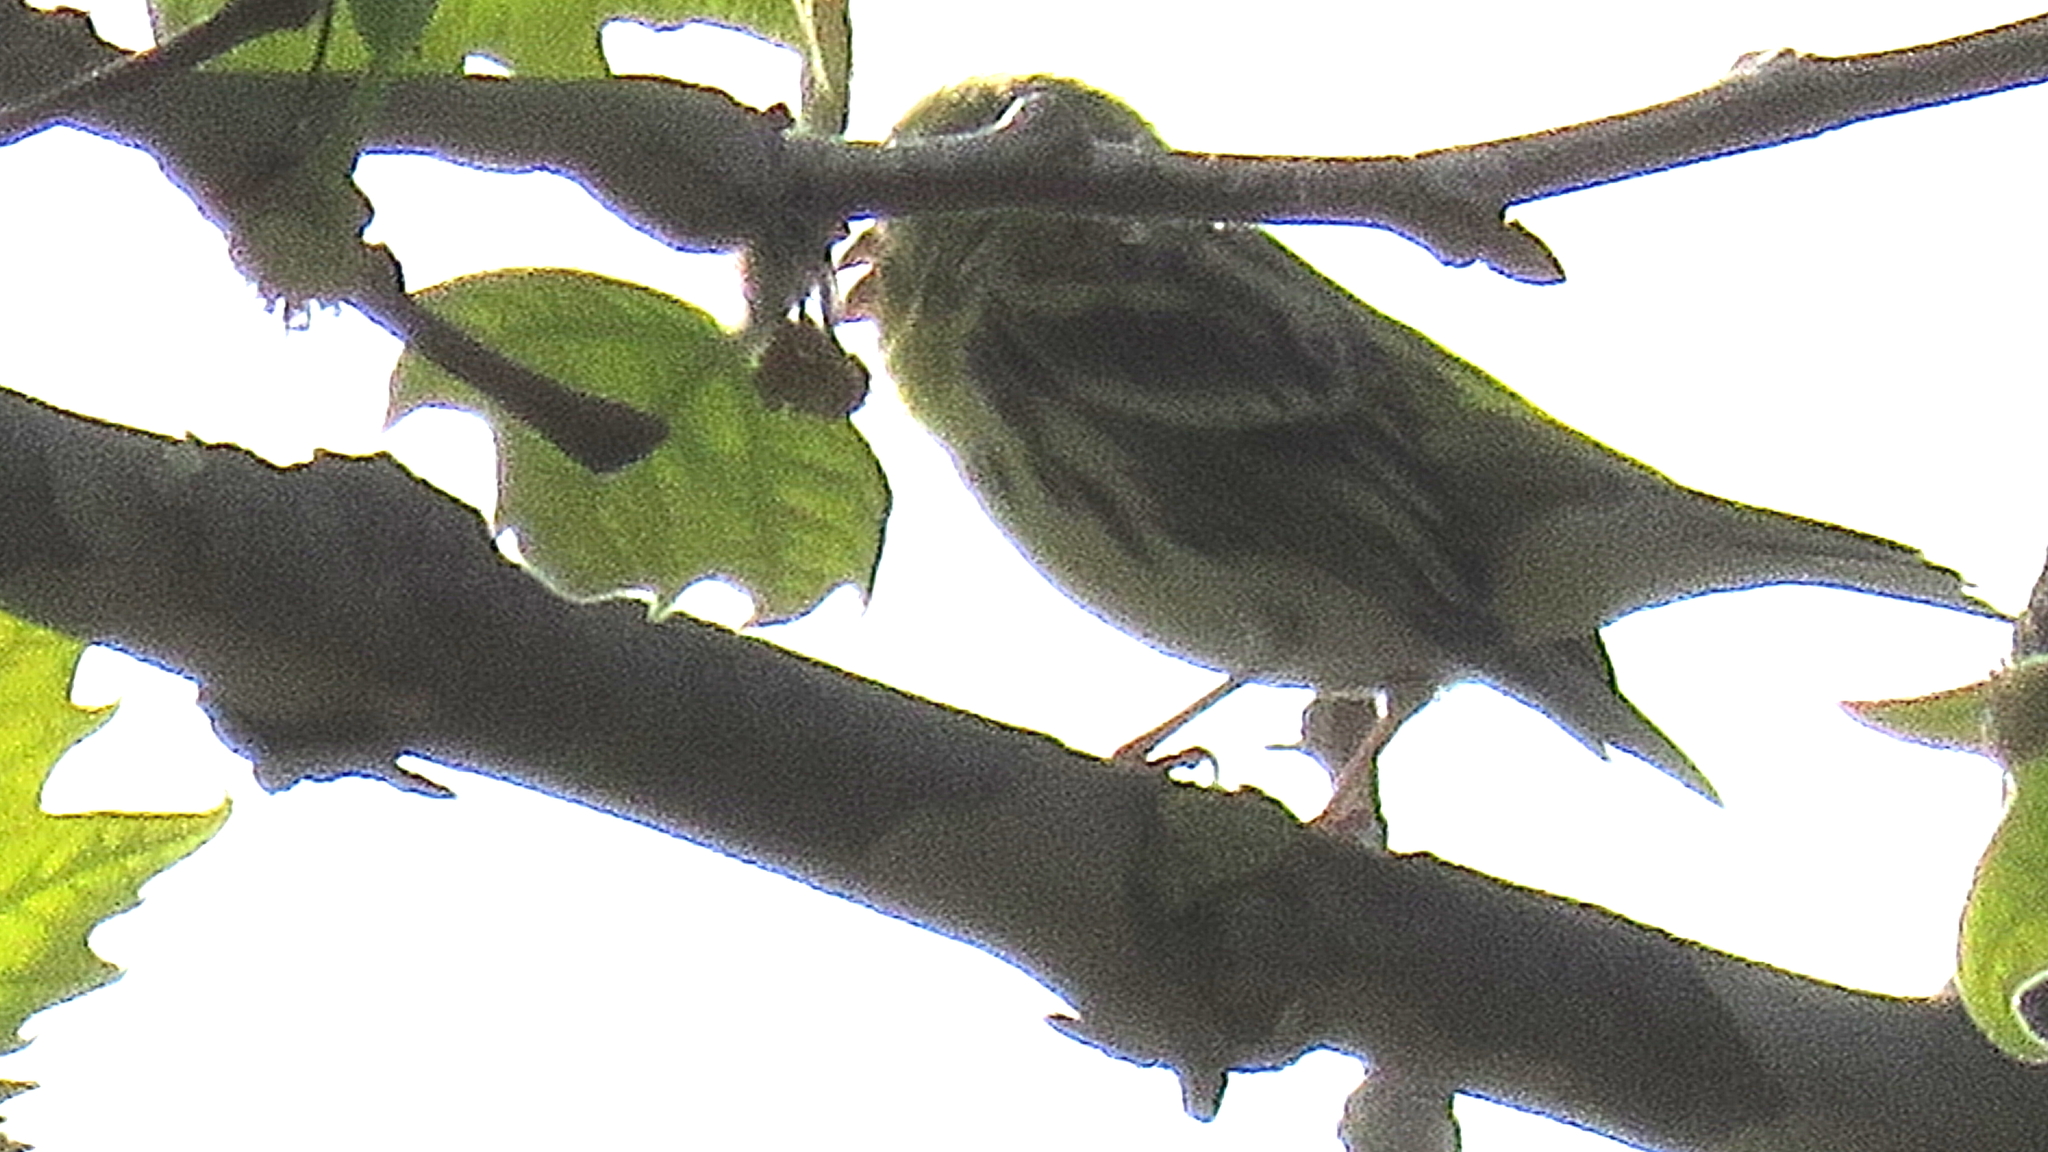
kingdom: Animalia
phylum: Chordata
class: Aves
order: Passeriformes
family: Fringillidae
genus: Serinus
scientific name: Serinus serinus
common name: European serin
